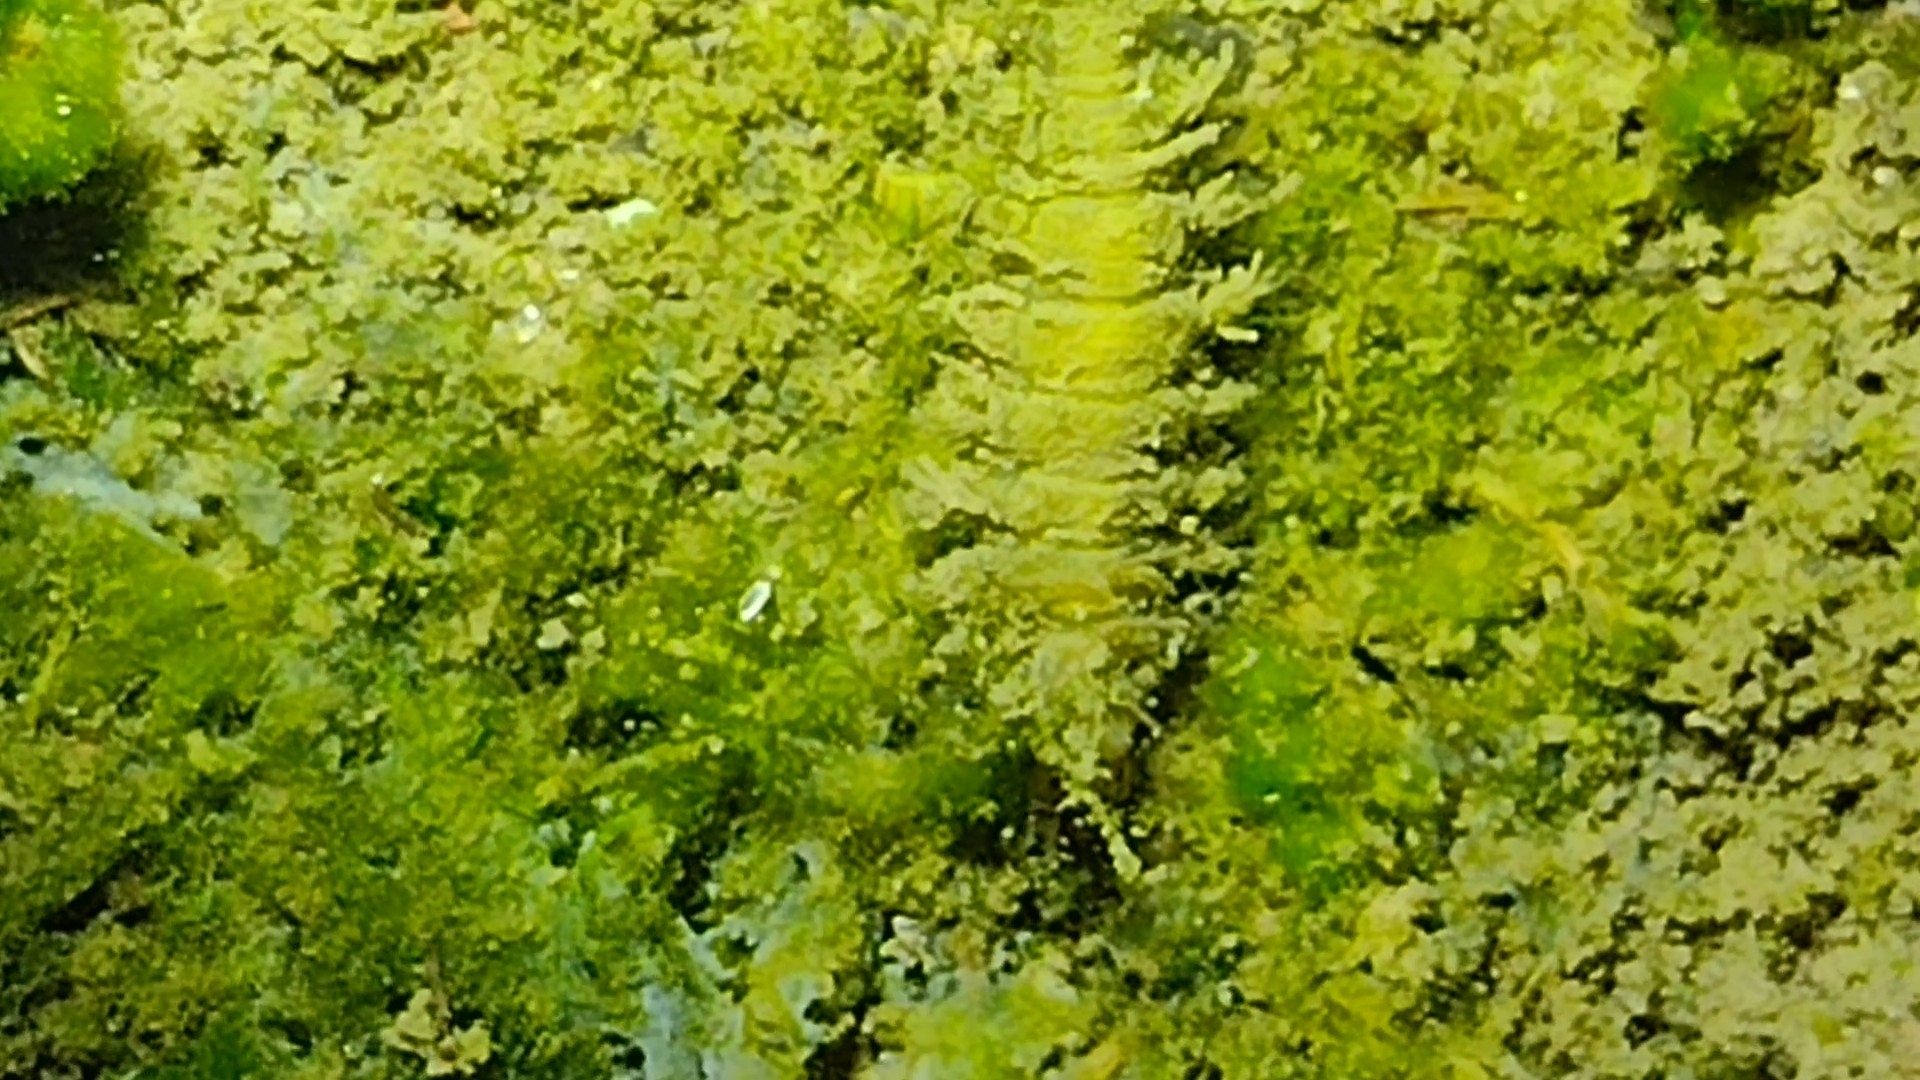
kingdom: Animalia
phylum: Arthropoda
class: Insecta
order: Coleoptera
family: Hydrophilidae
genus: Hydrochara
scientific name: Hydrochara lineata
